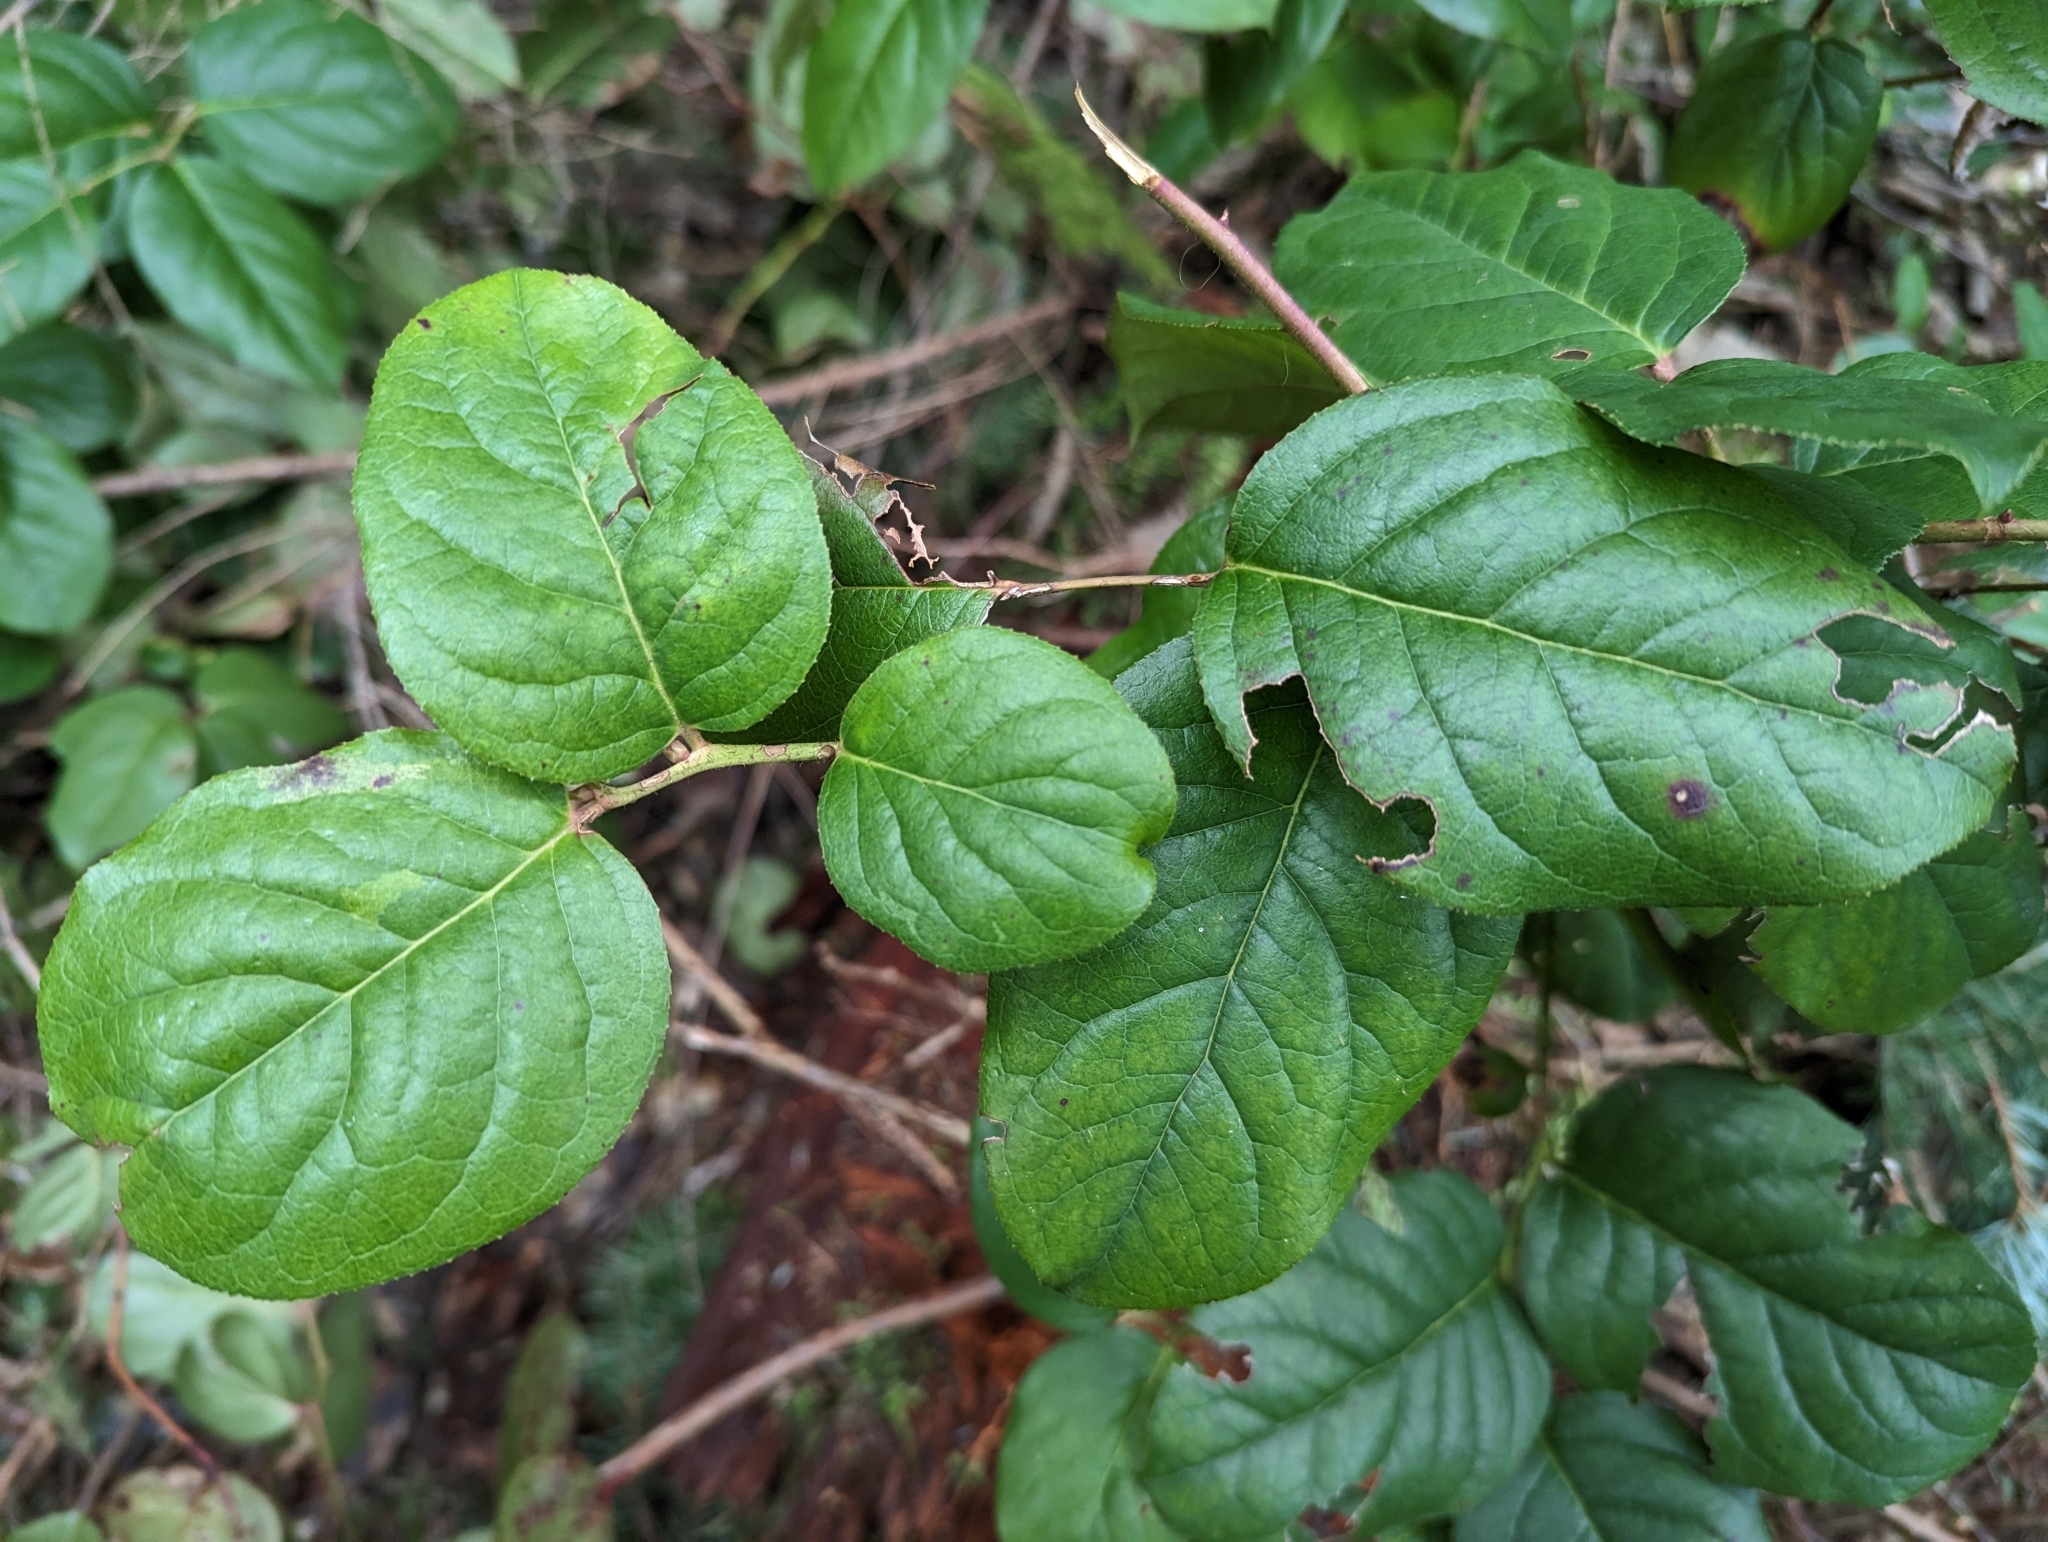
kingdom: Plantae
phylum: Tracheophyta
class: Magnoliopsida
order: Ericales
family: Ericaceae
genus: Gaultheria
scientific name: Gaultheria shallon
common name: Shallon
